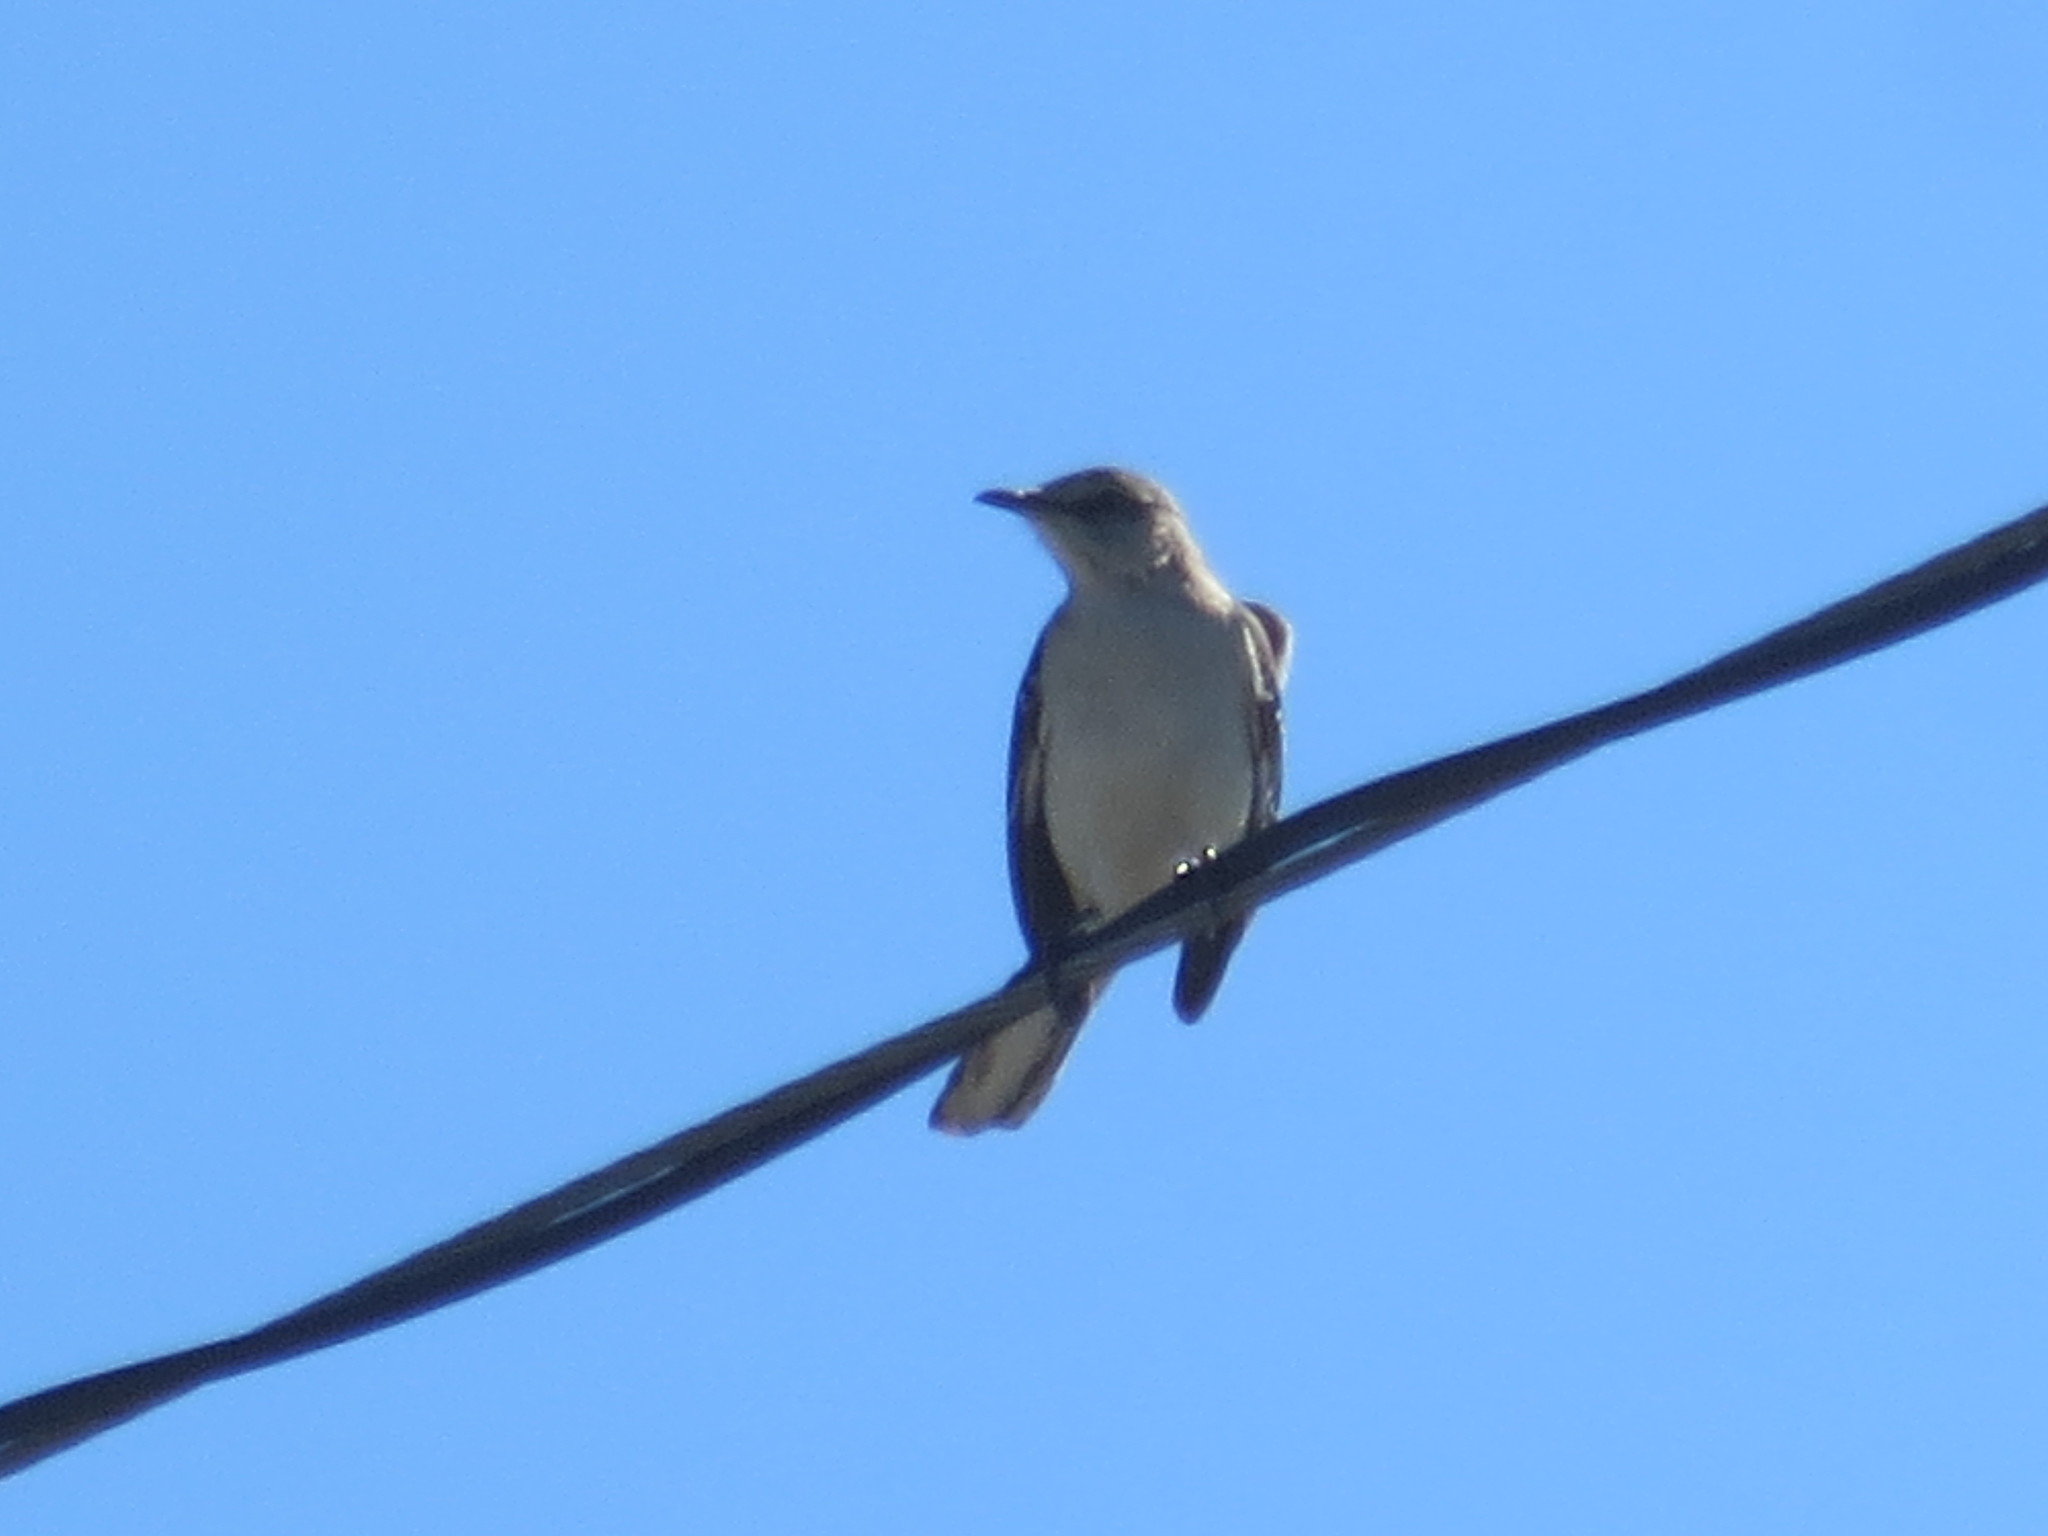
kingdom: Animalia
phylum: Chordata
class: Aves
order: Passeriformes
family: Mimidae
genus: Mimus
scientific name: Mimus polyglottos
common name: Northern mockingbird
